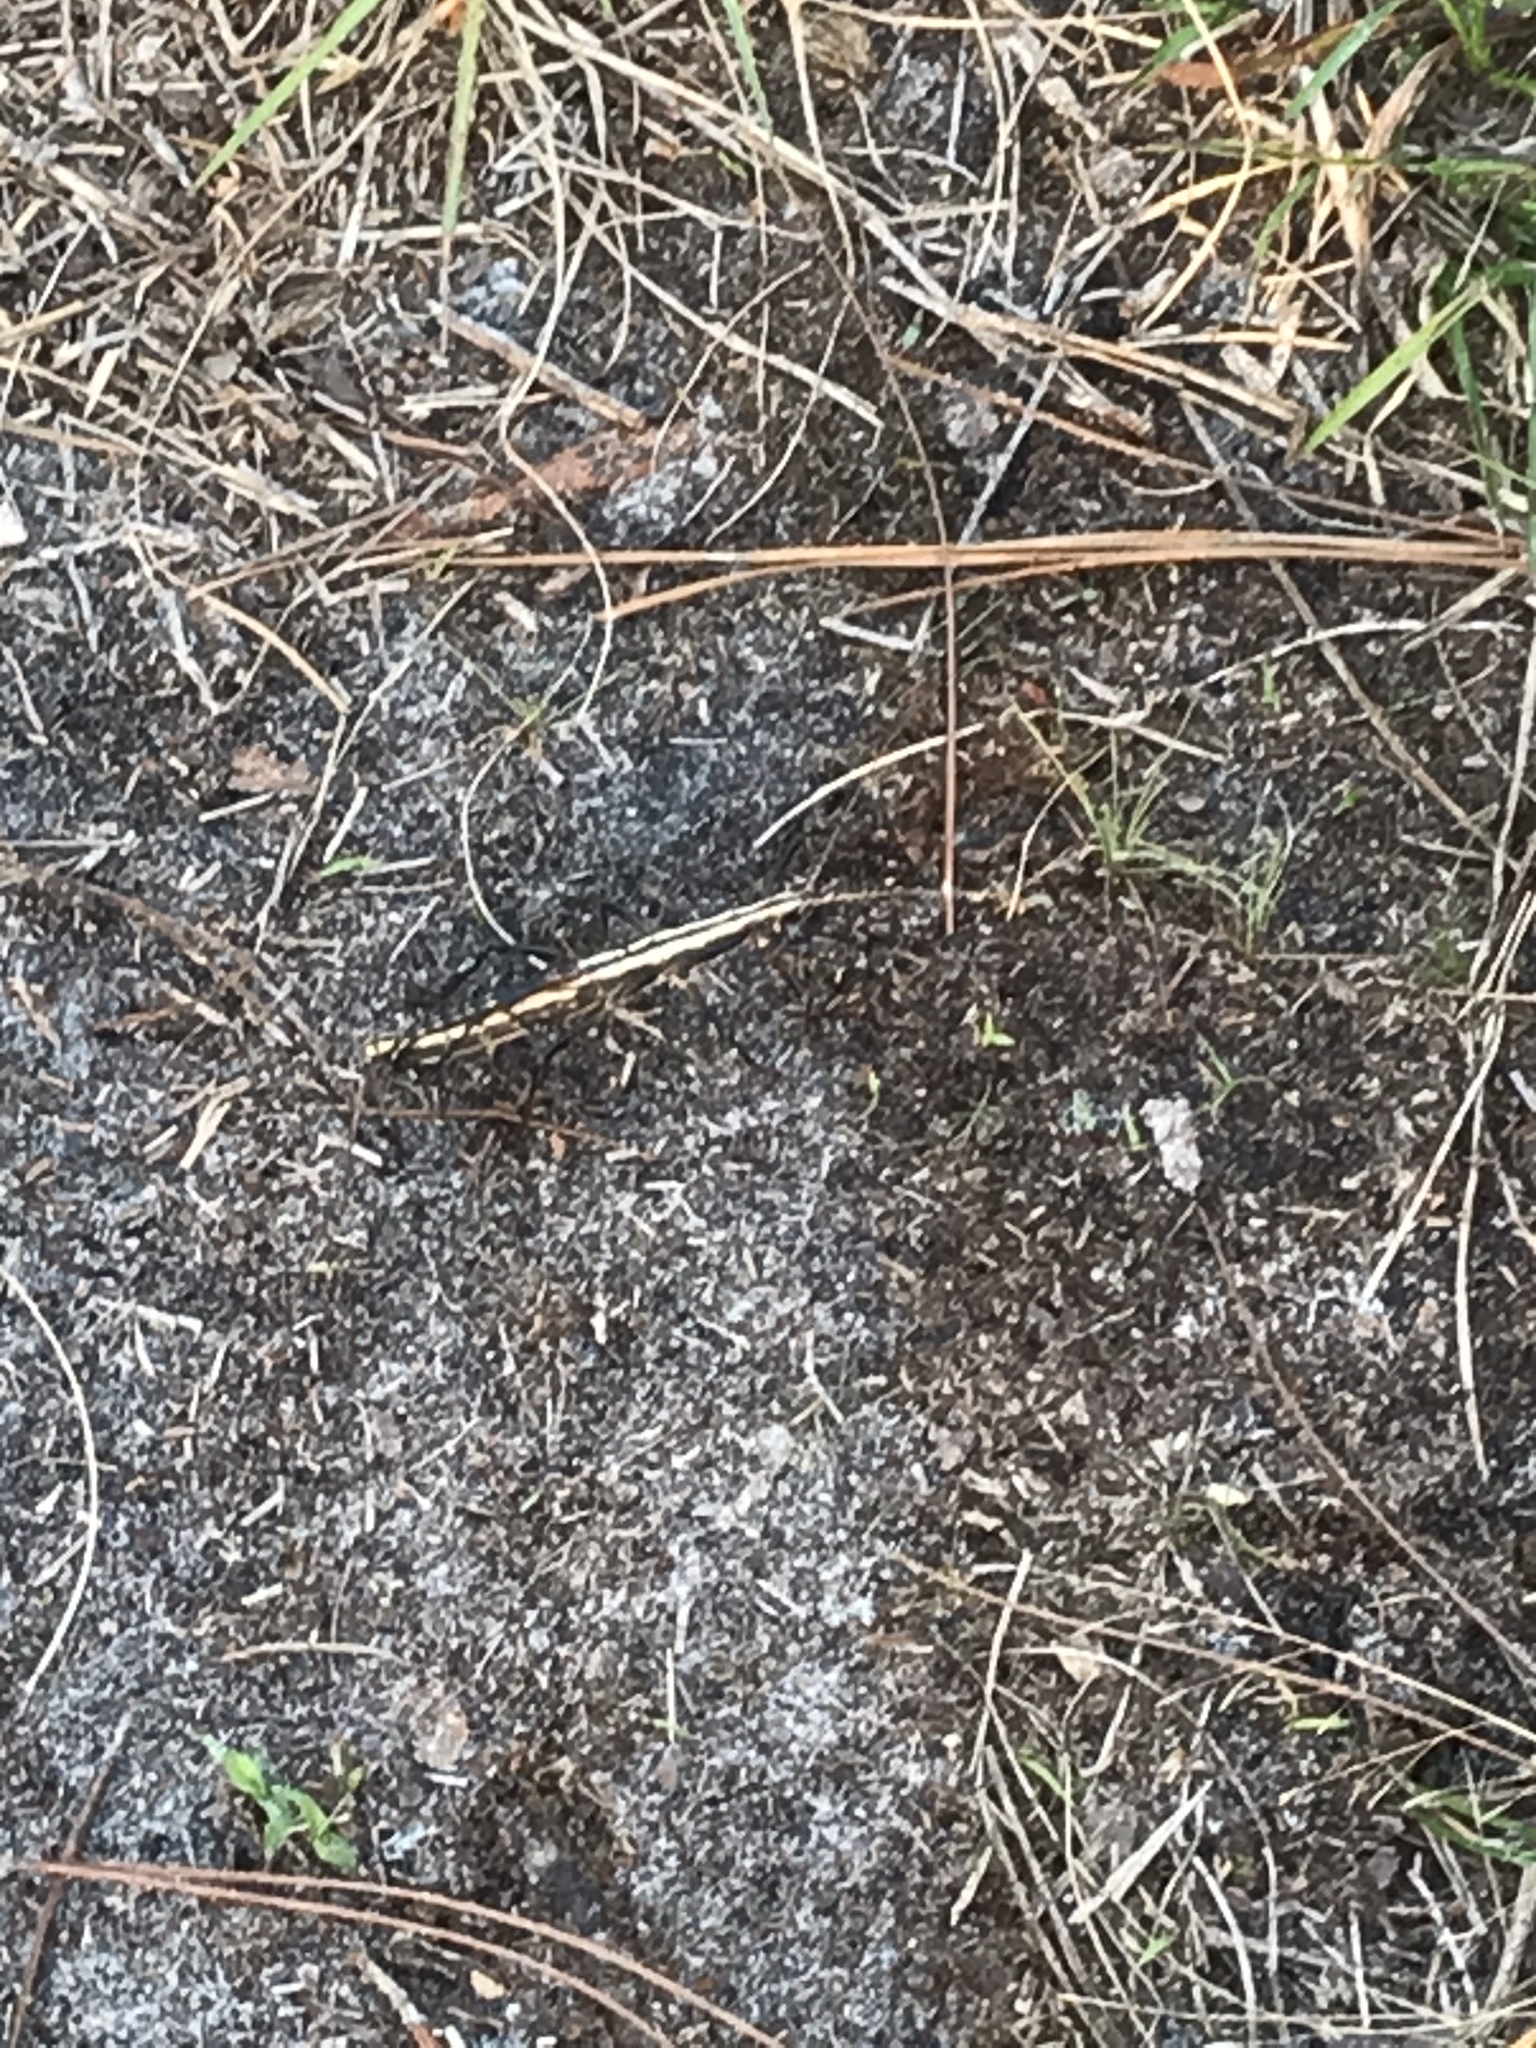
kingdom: Animalia
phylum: Arthropoda
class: Insecta
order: Phasmida
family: Pseudophasmatidae
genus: Anisomorpha
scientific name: Anisomorpha buprestoides
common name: Florida stick insect
